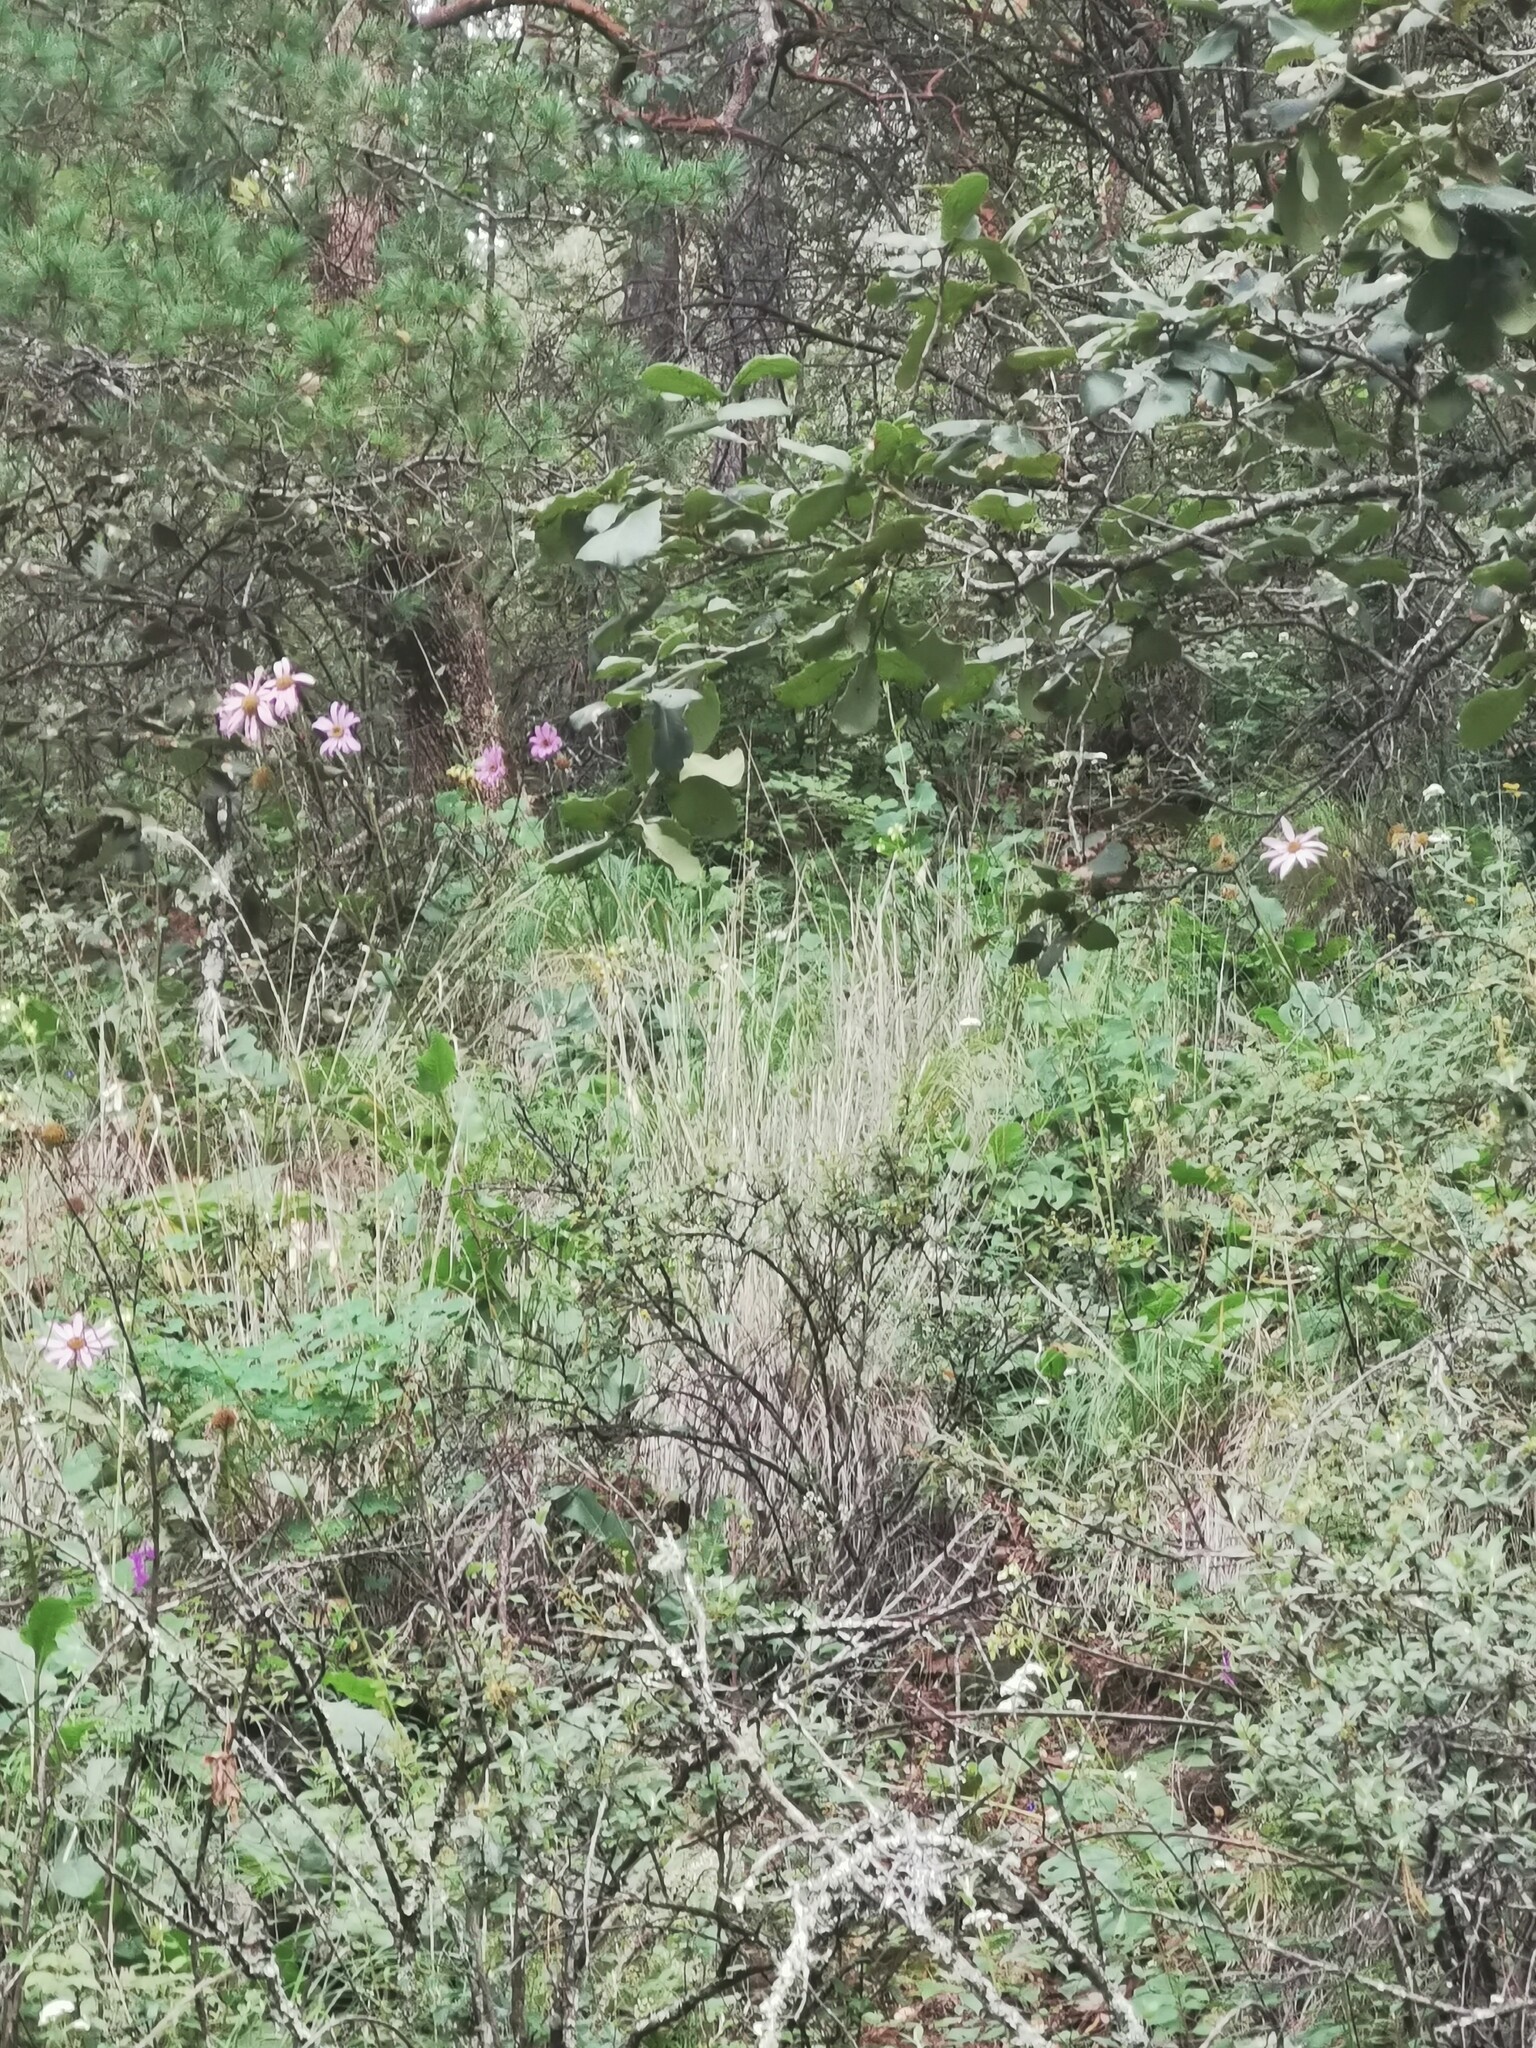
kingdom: Plantae
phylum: Tracheophyta
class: Magnoliopsida
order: Asterales
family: Asteraceae
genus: Iostephane
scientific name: Iostephane heterophylla
